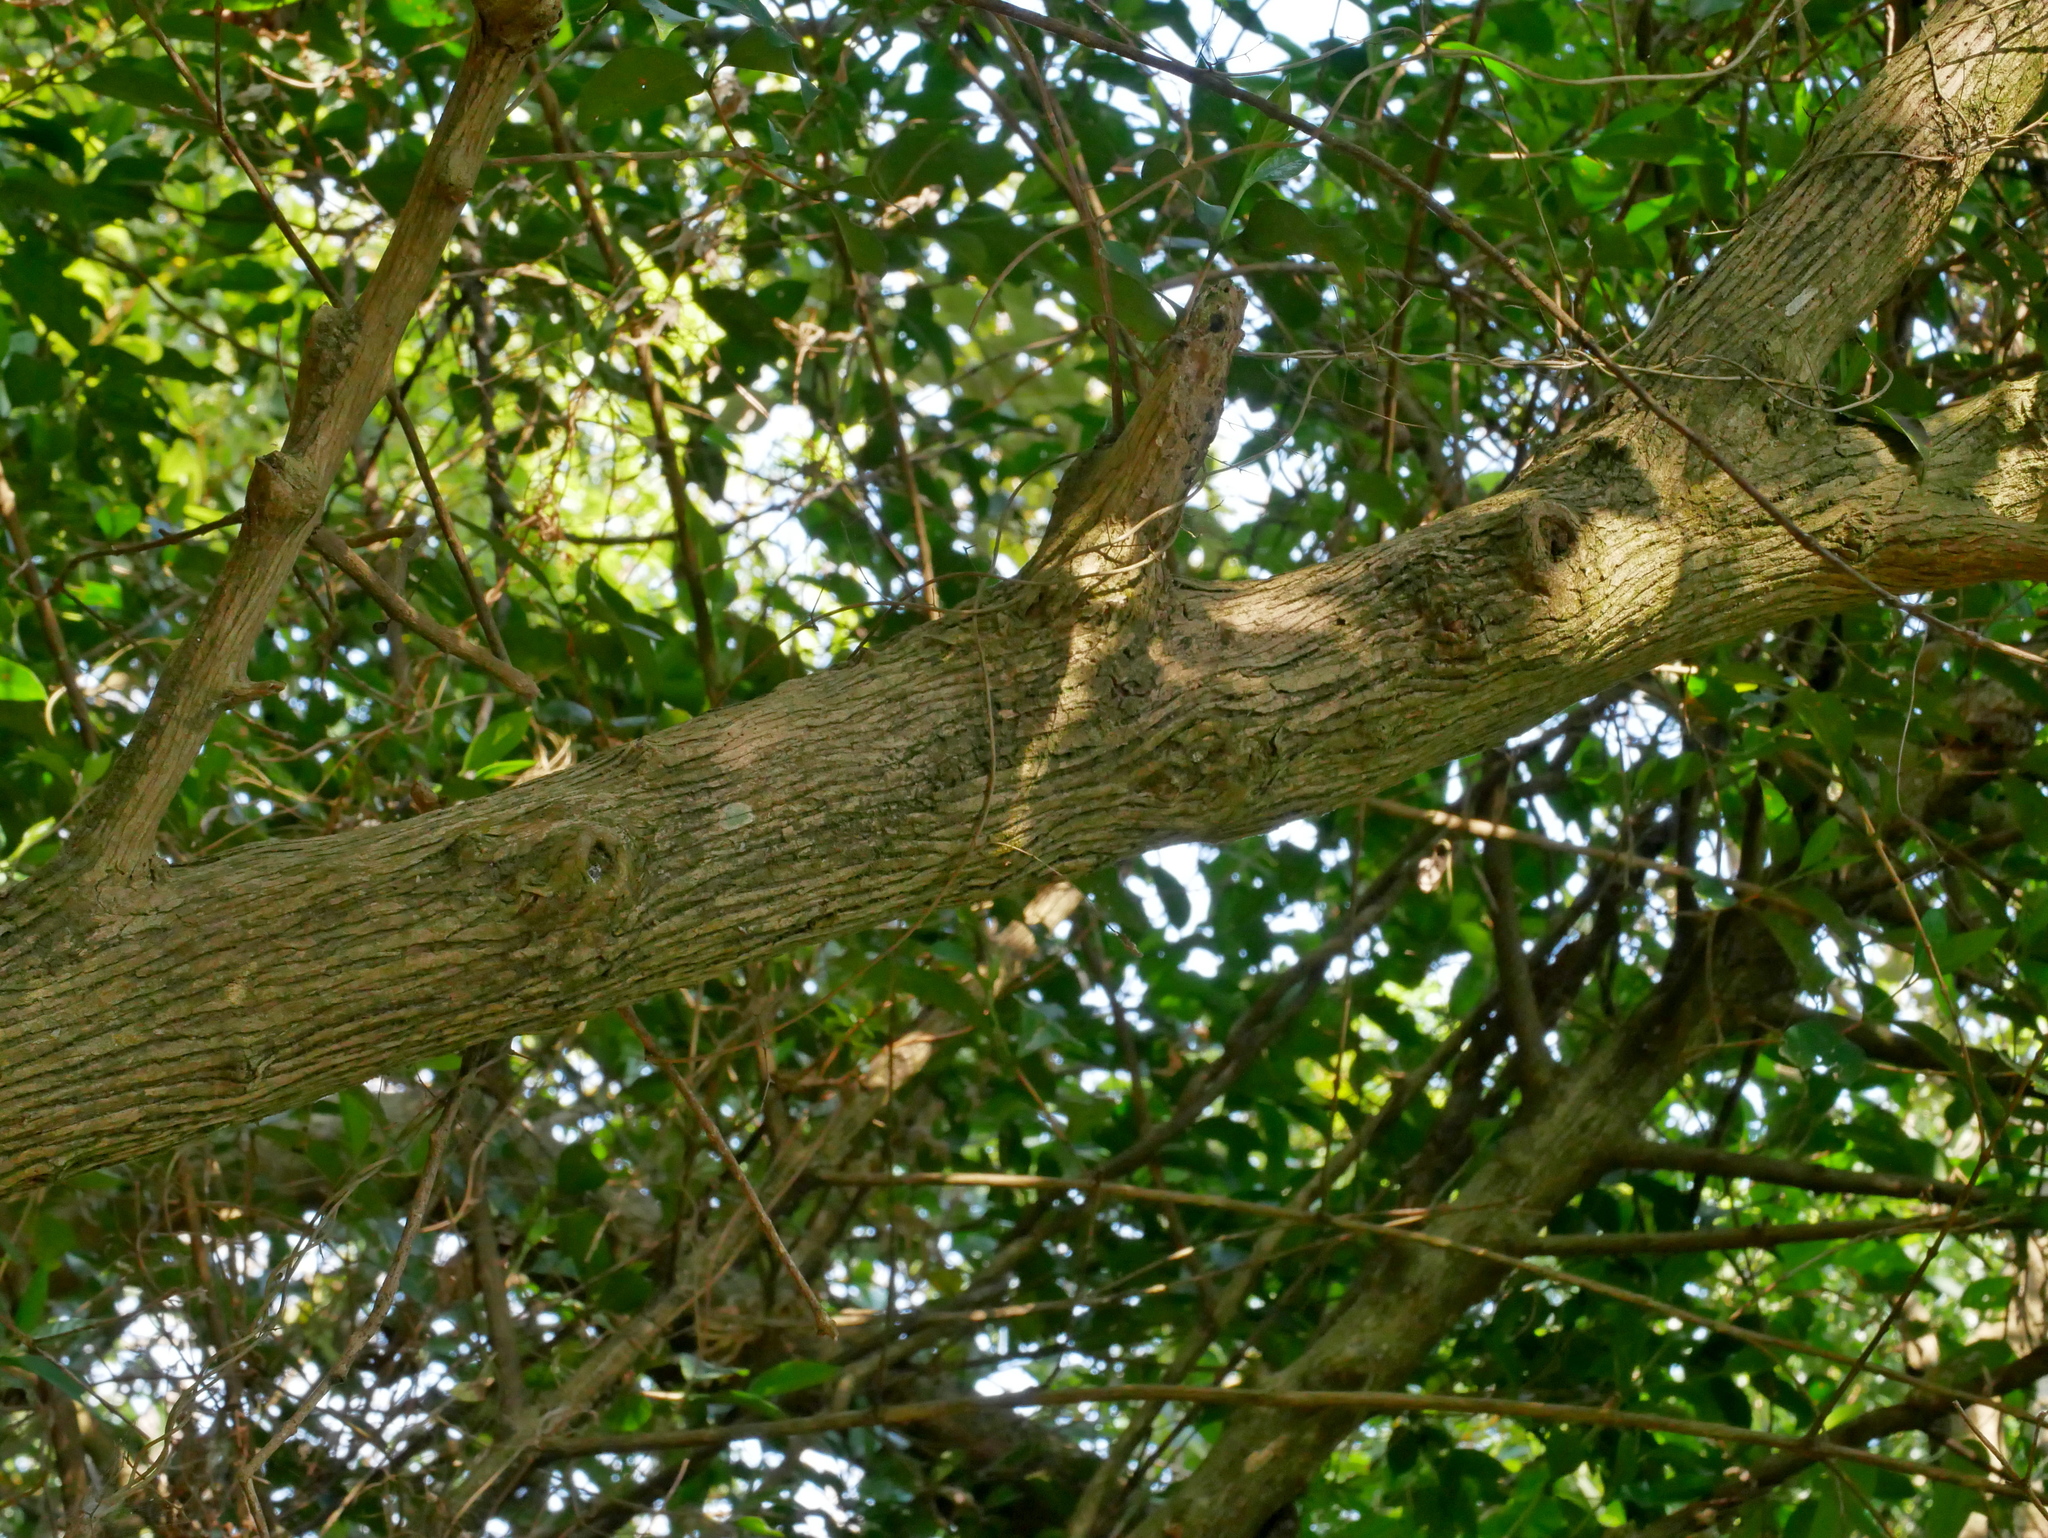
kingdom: Plantae
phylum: Tracheophyta
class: Magnoliopsida
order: Gentianales
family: Rubiaceae
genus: Diplospora
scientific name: Diplospora dubia
